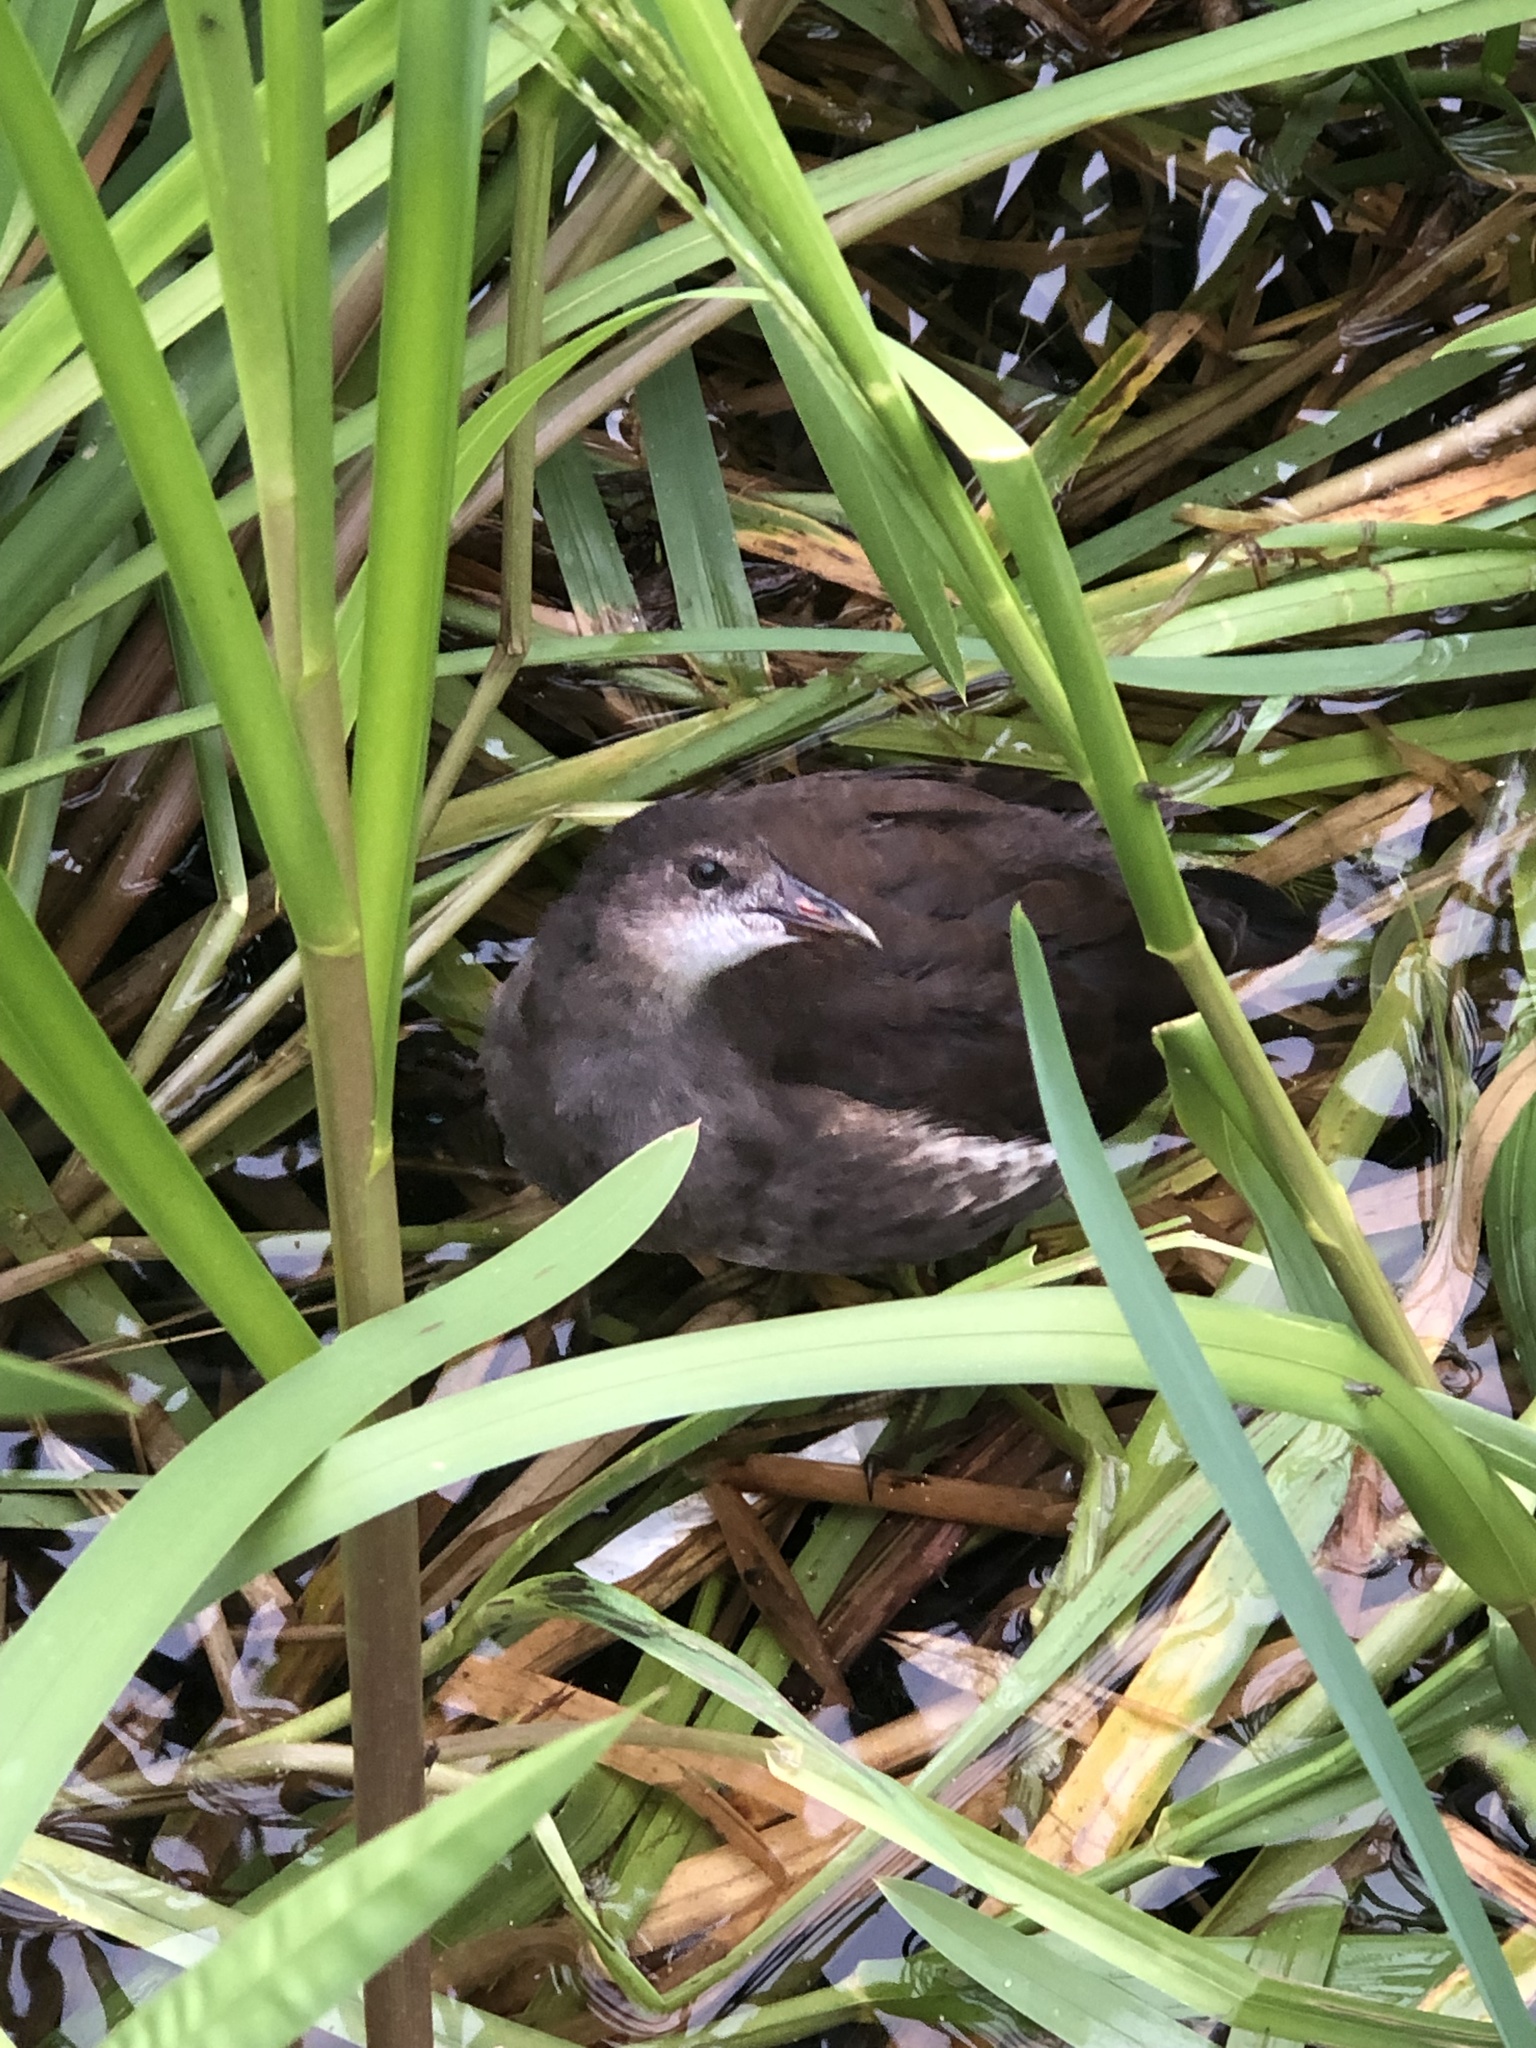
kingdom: Animalia
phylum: Chordata
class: Aves
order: Gruiformes
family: Rallidae
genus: Gallinula
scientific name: Gallinula chloropus
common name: Common moorhen
